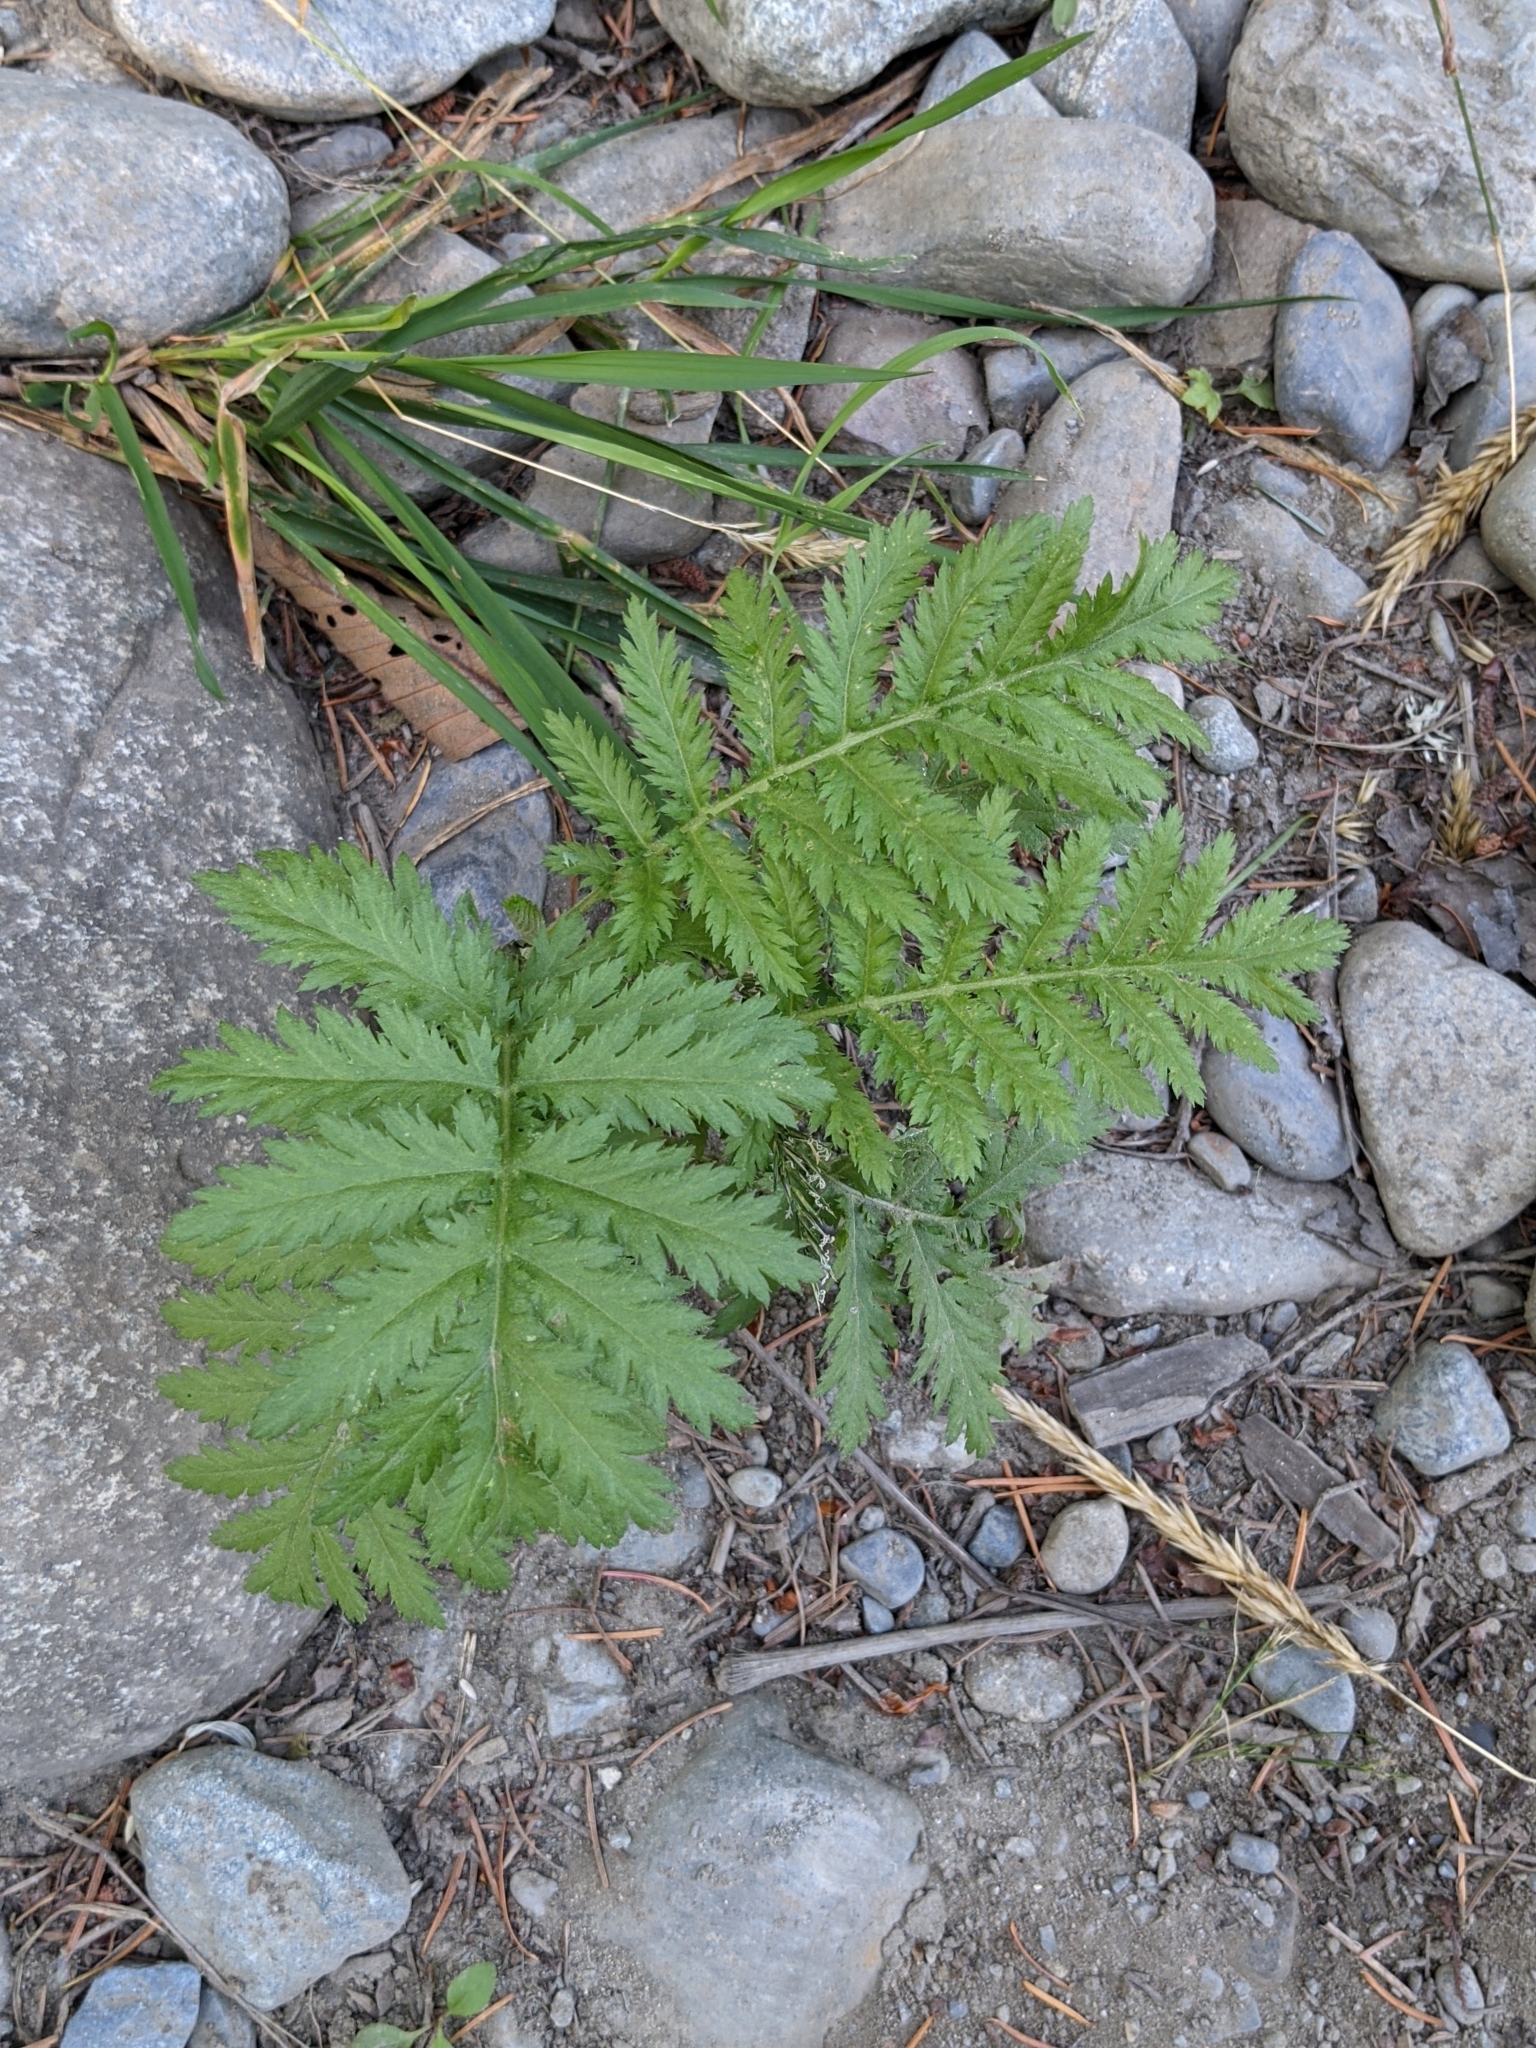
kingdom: Plantae
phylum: Tracheophyta
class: Magnoliopsida
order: Asterales
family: Asteraceae
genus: Tanacetum
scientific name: Tanacetum vulgare
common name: Common tansy
